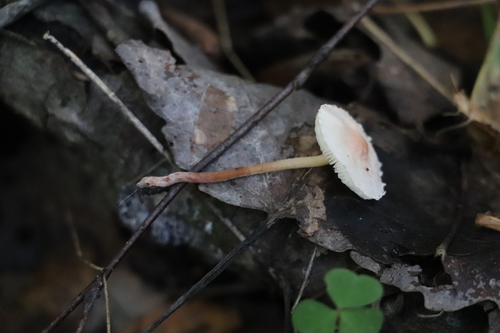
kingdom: Fungi
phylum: Basidiomycota
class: Agaricomycetes
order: Agaricales
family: Agaricaceae
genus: Cystolepiota
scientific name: Cystolepiota seminuda
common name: Bearded dapperling
